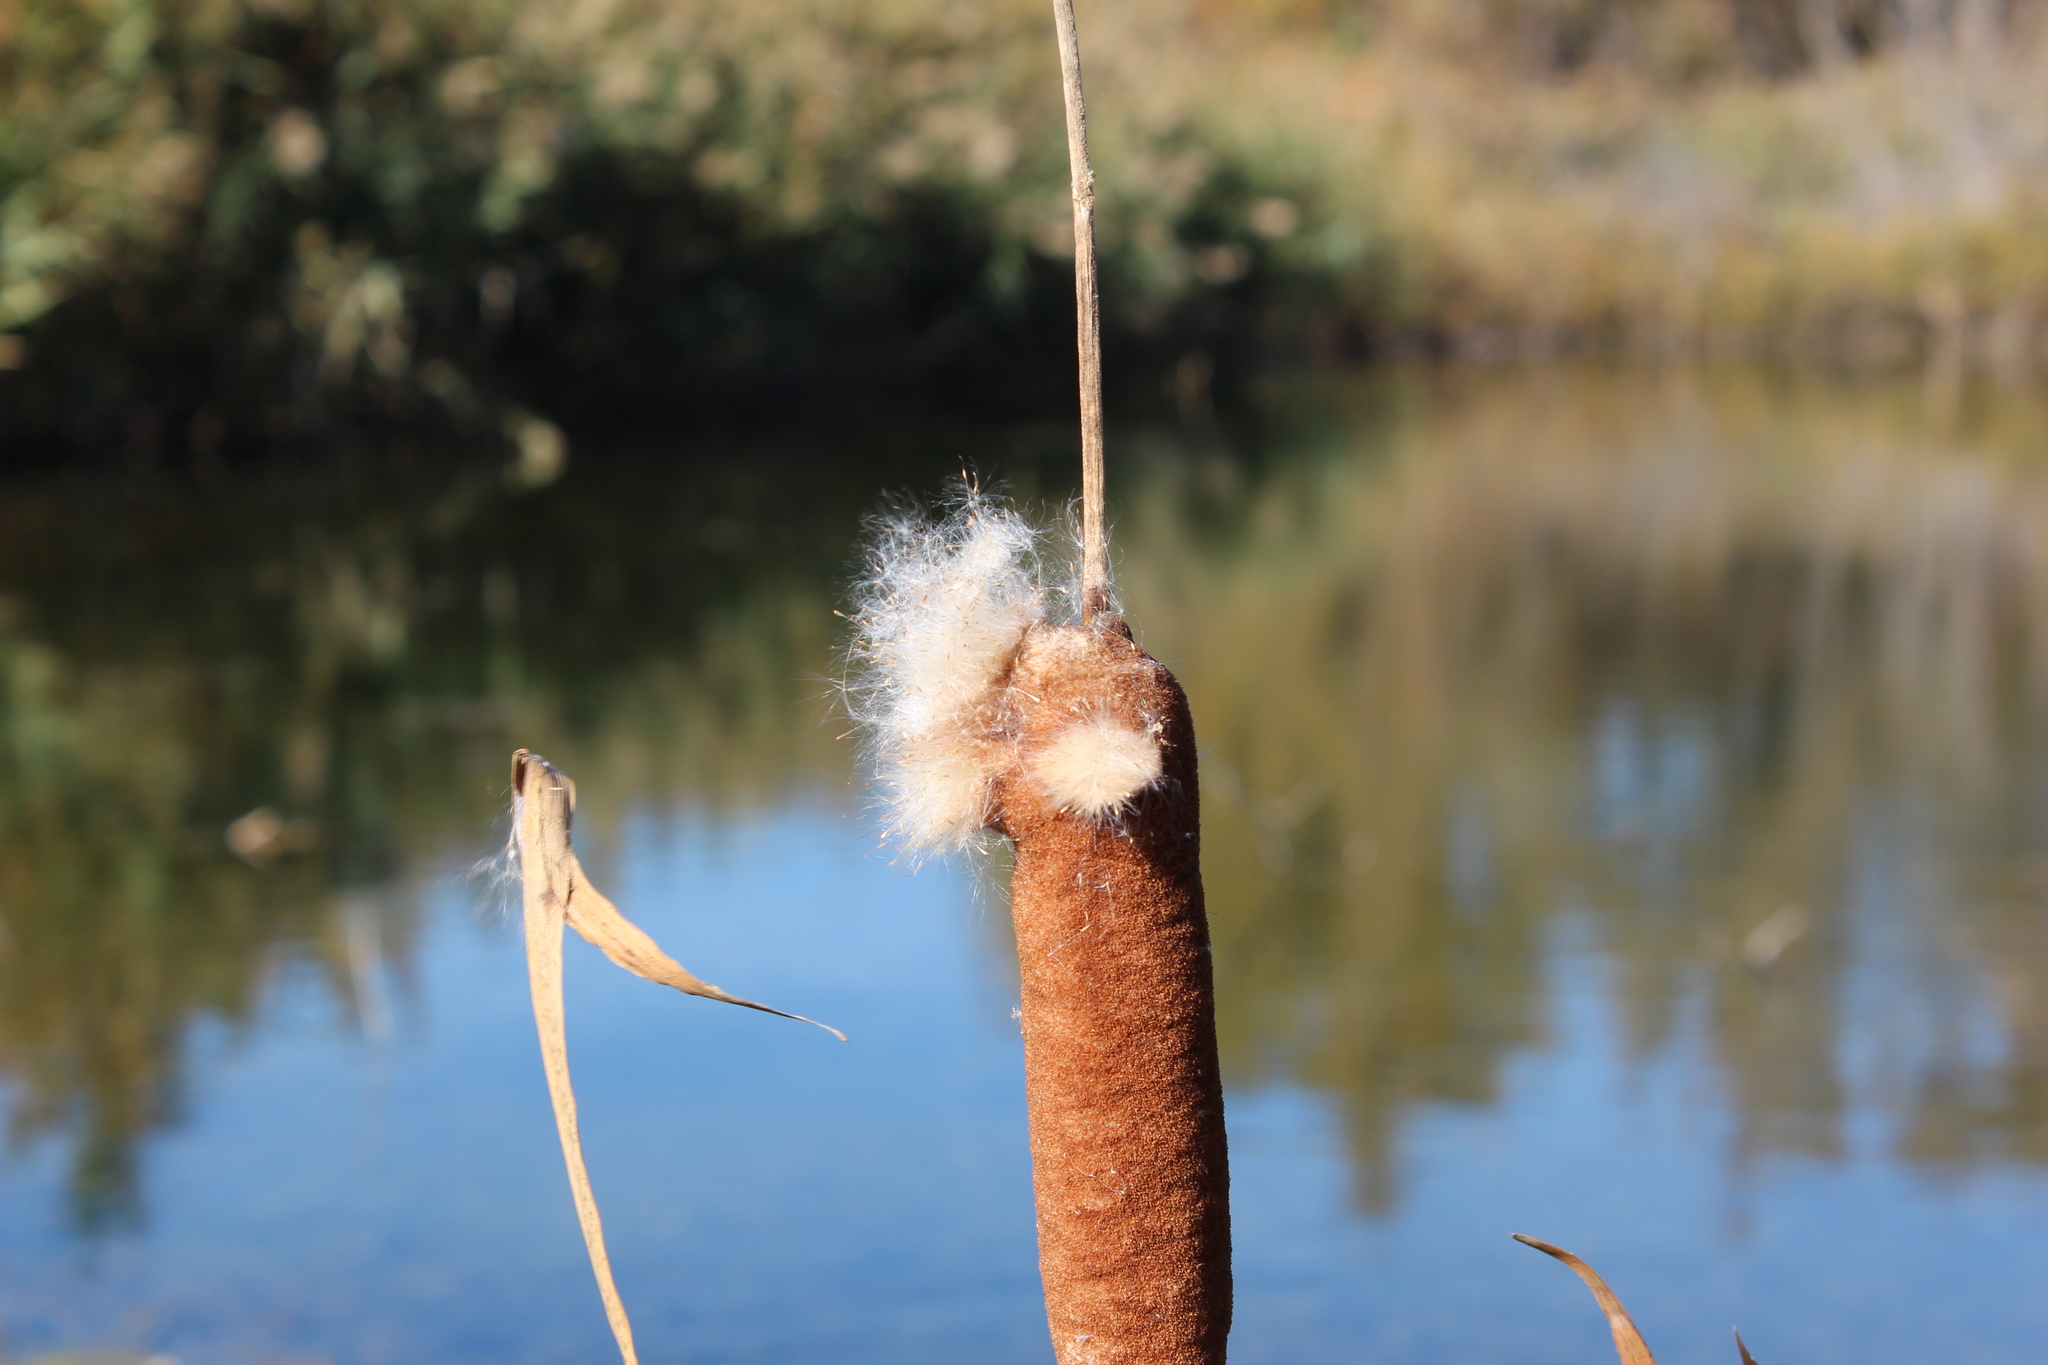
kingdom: Plantae
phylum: Tracheophyta
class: Liliopsida
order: Poales
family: Typhaceae
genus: Typha
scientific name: Typha latifolia
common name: Broadleaf cattail
